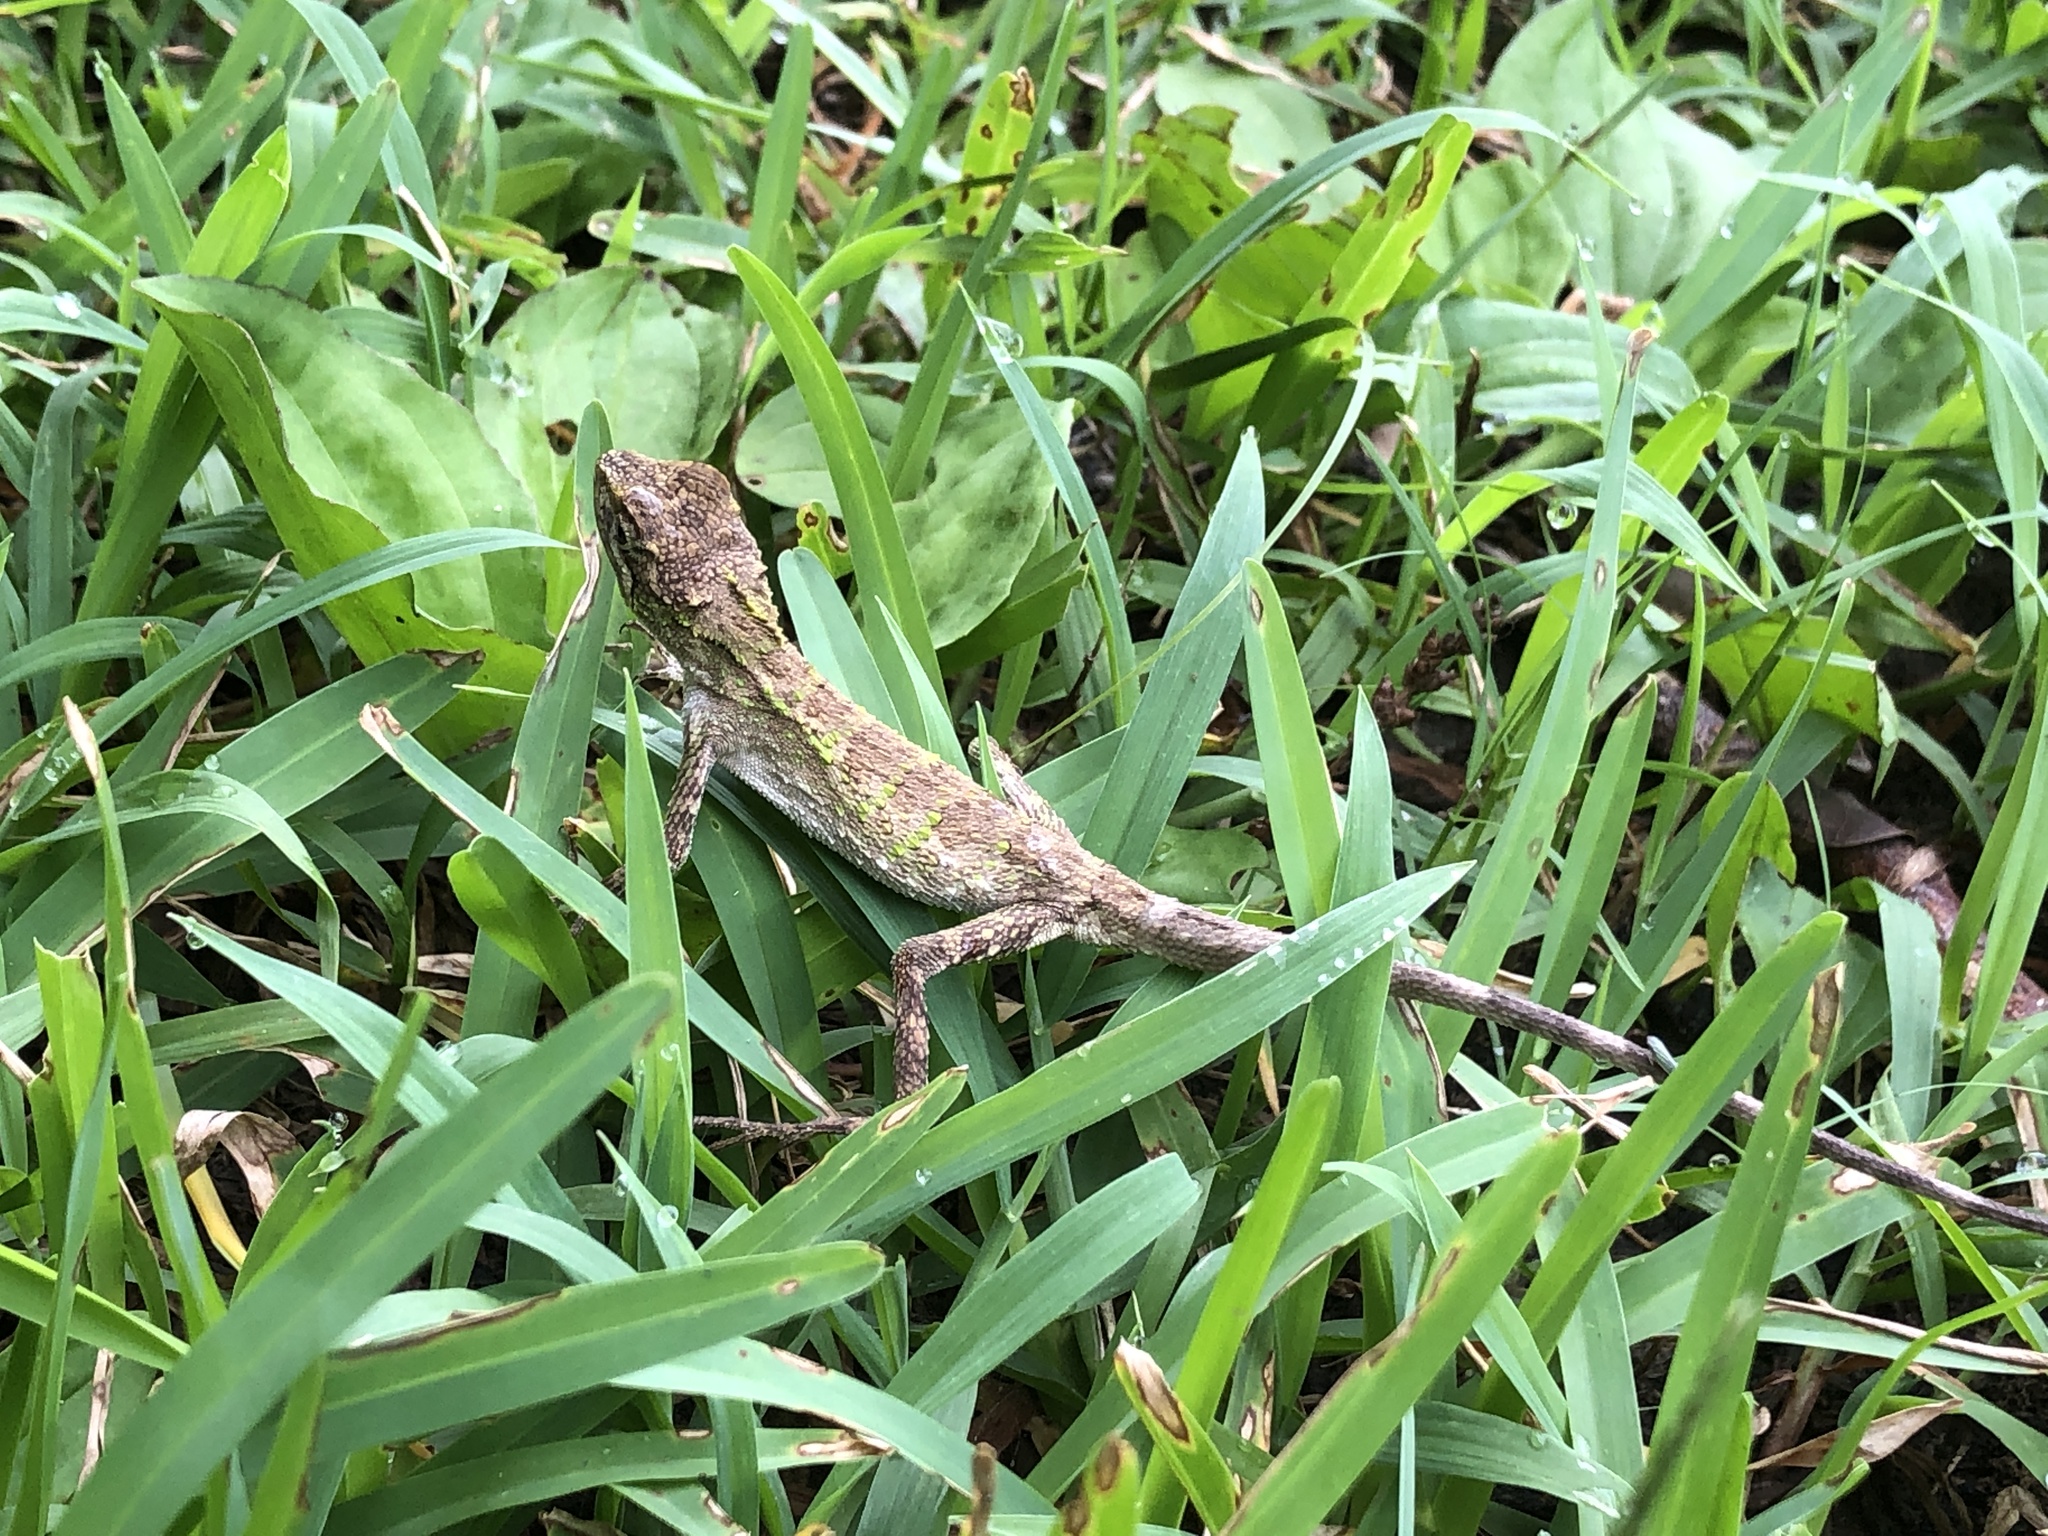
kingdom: Fungi
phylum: Basidiomycota
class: Agaricomycetes
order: Boletales
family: Diplocystidiaceae
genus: Diploderma
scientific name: Diploderma polygonatum
